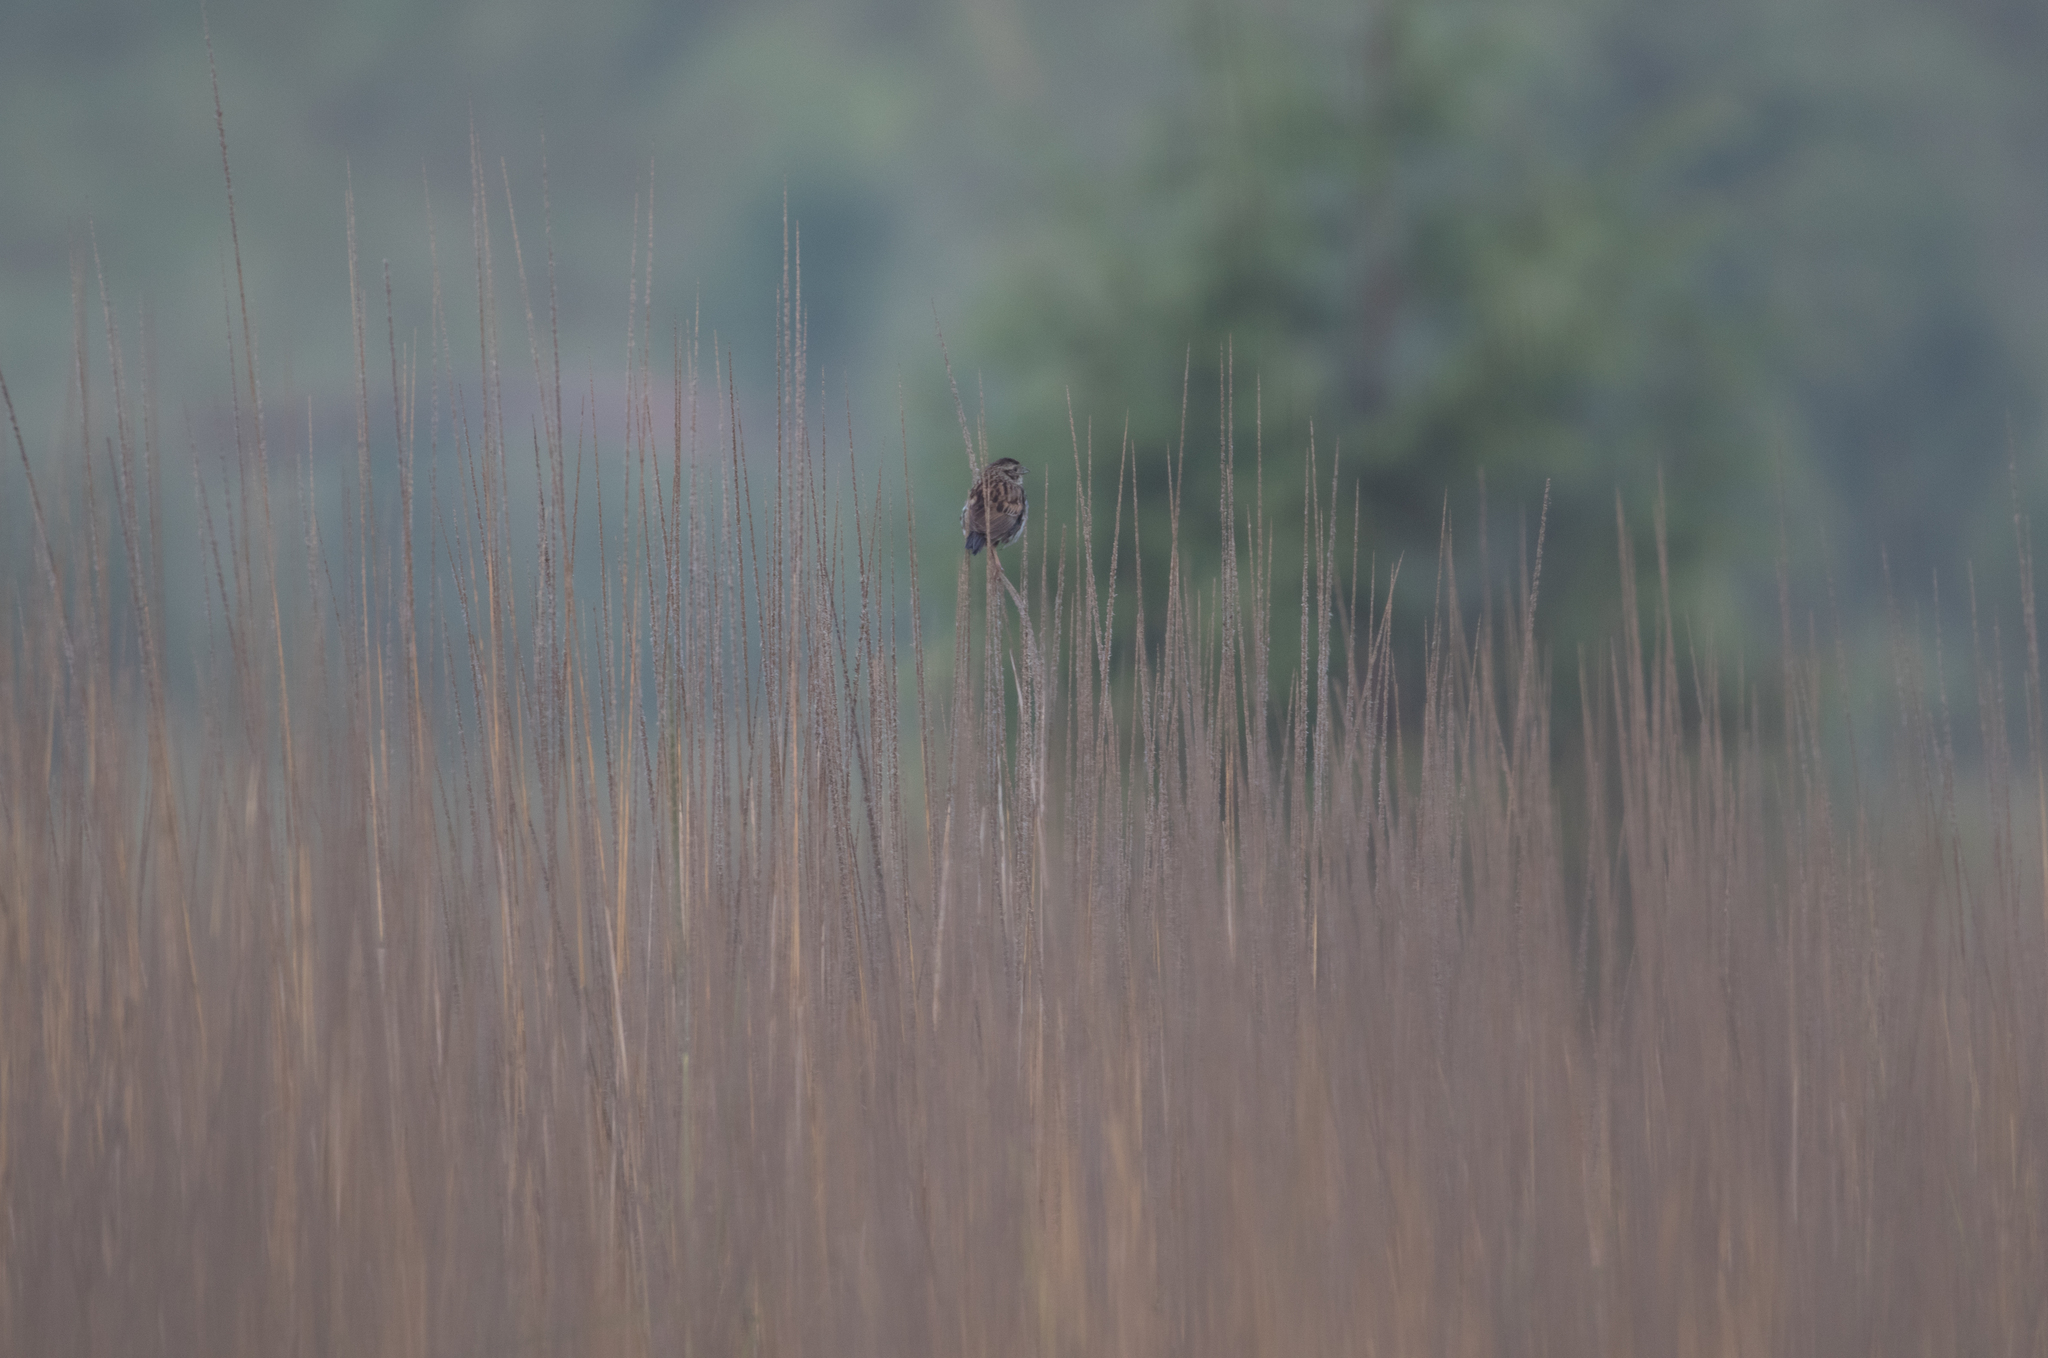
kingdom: Animalia
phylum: Chordata
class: Aves
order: Passeriformes
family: Passerellidae
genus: Xenospiza
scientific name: Xenospiza baileyi
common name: Sierra madre sparrow
